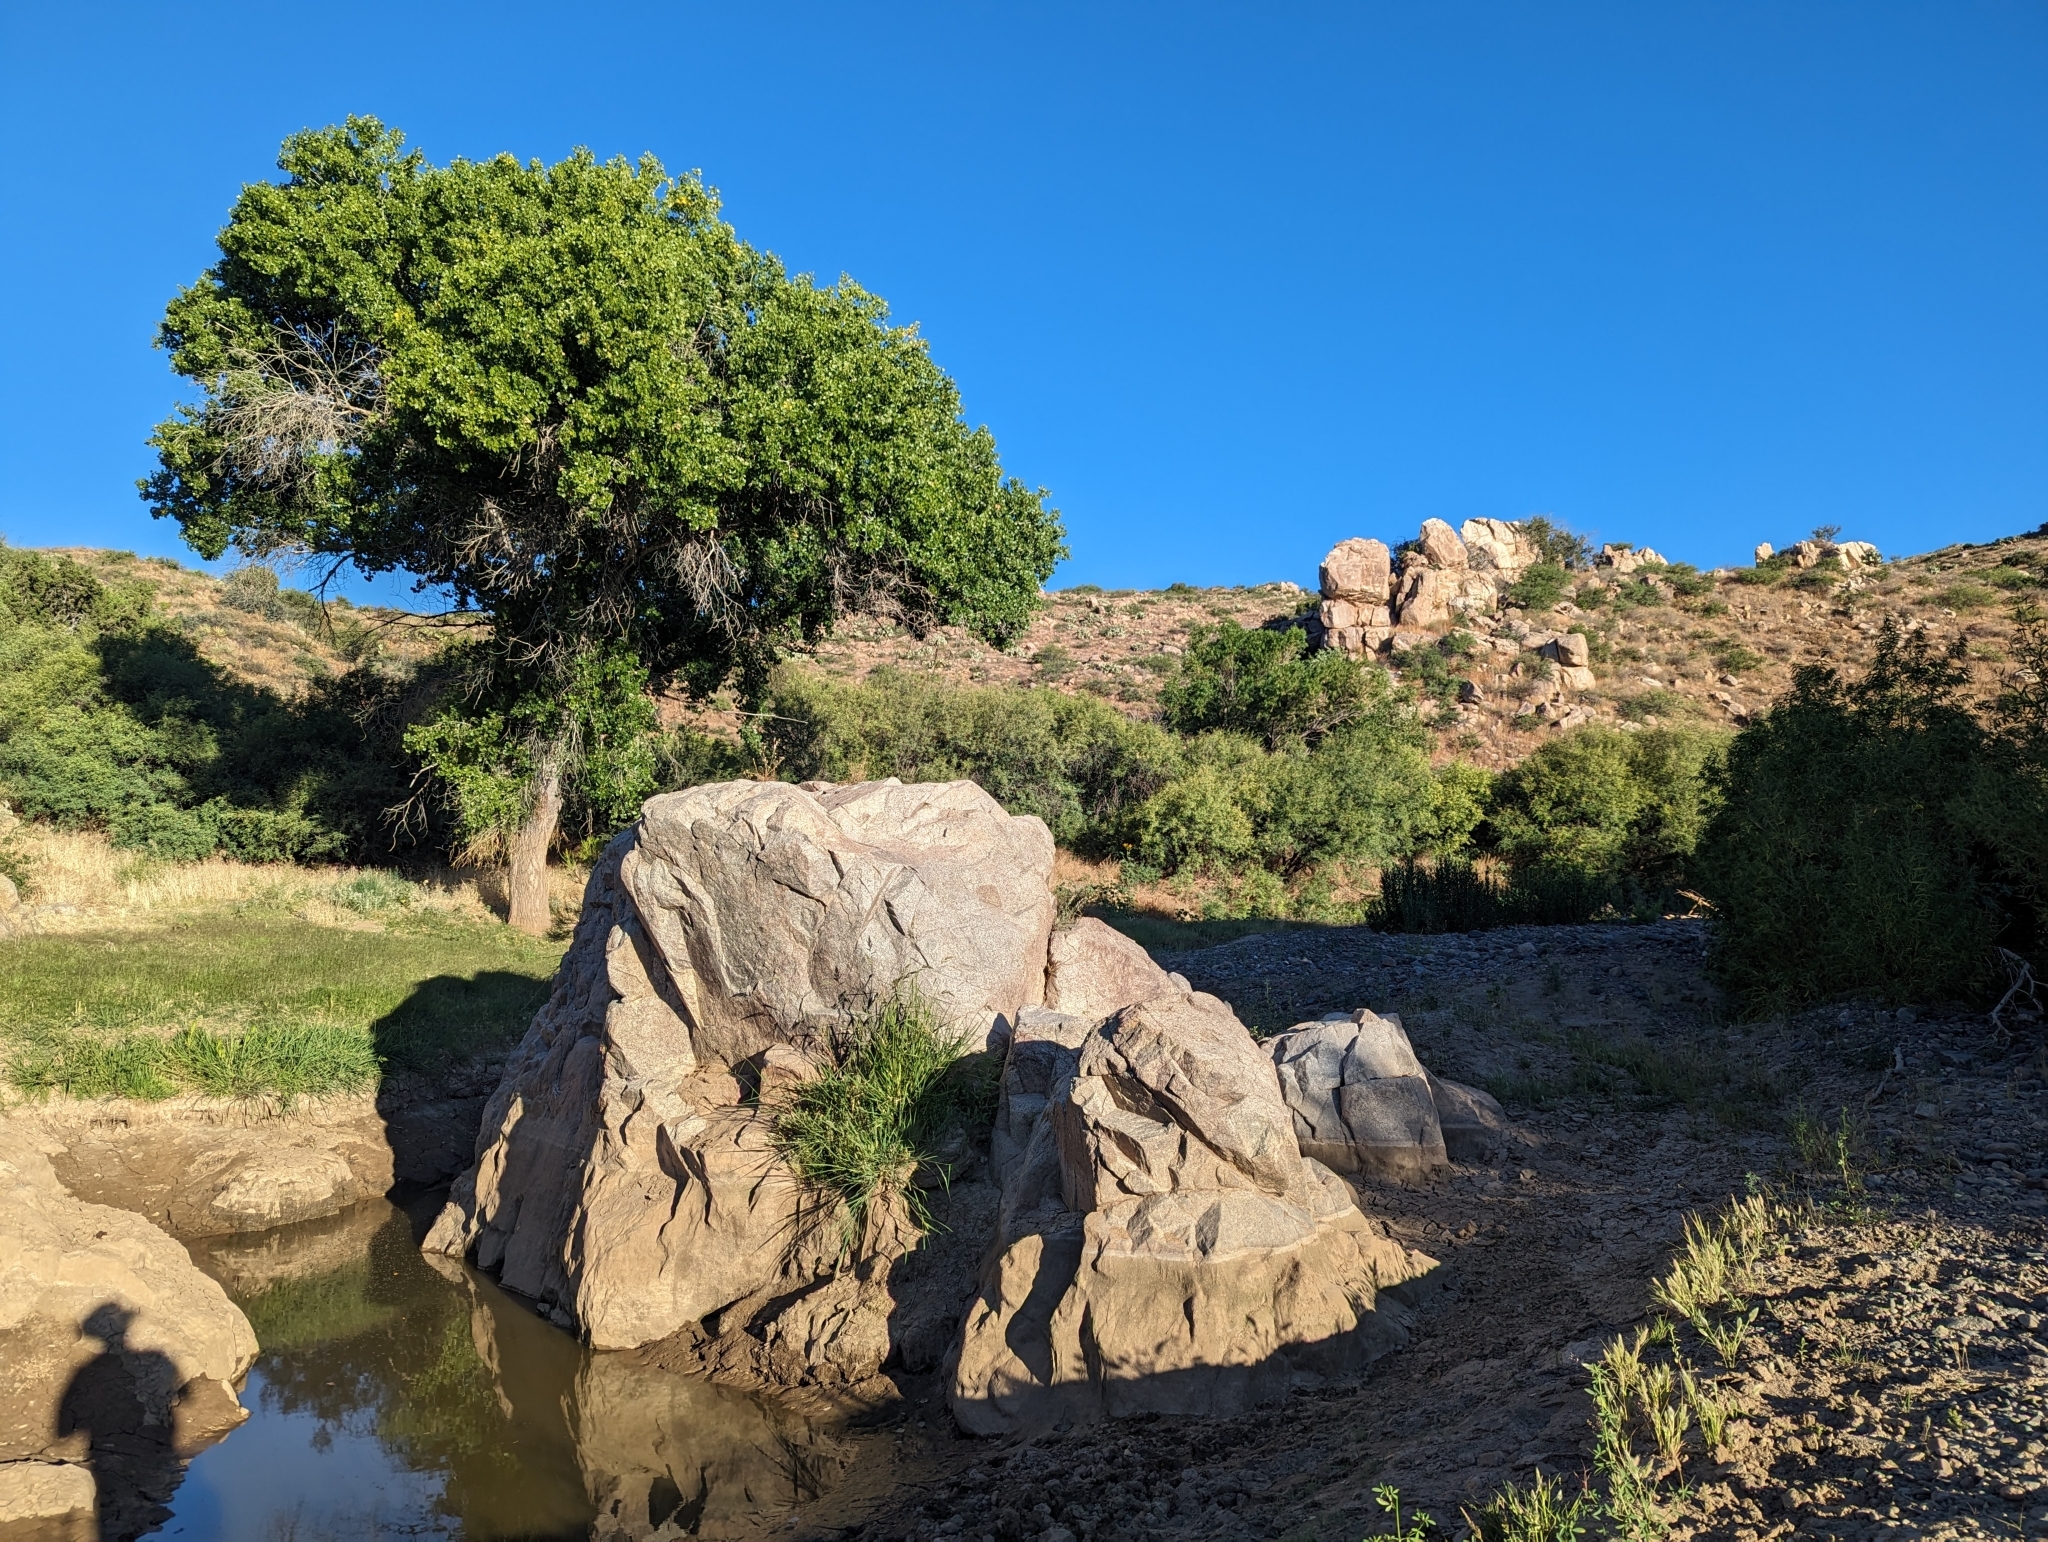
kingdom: Plantae
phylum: Tracheophyta
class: Magnoliopsida
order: Malpighiales
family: Salicaceae
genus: Populus
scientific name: Populus fremontii
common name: Fremont's cottonwood
